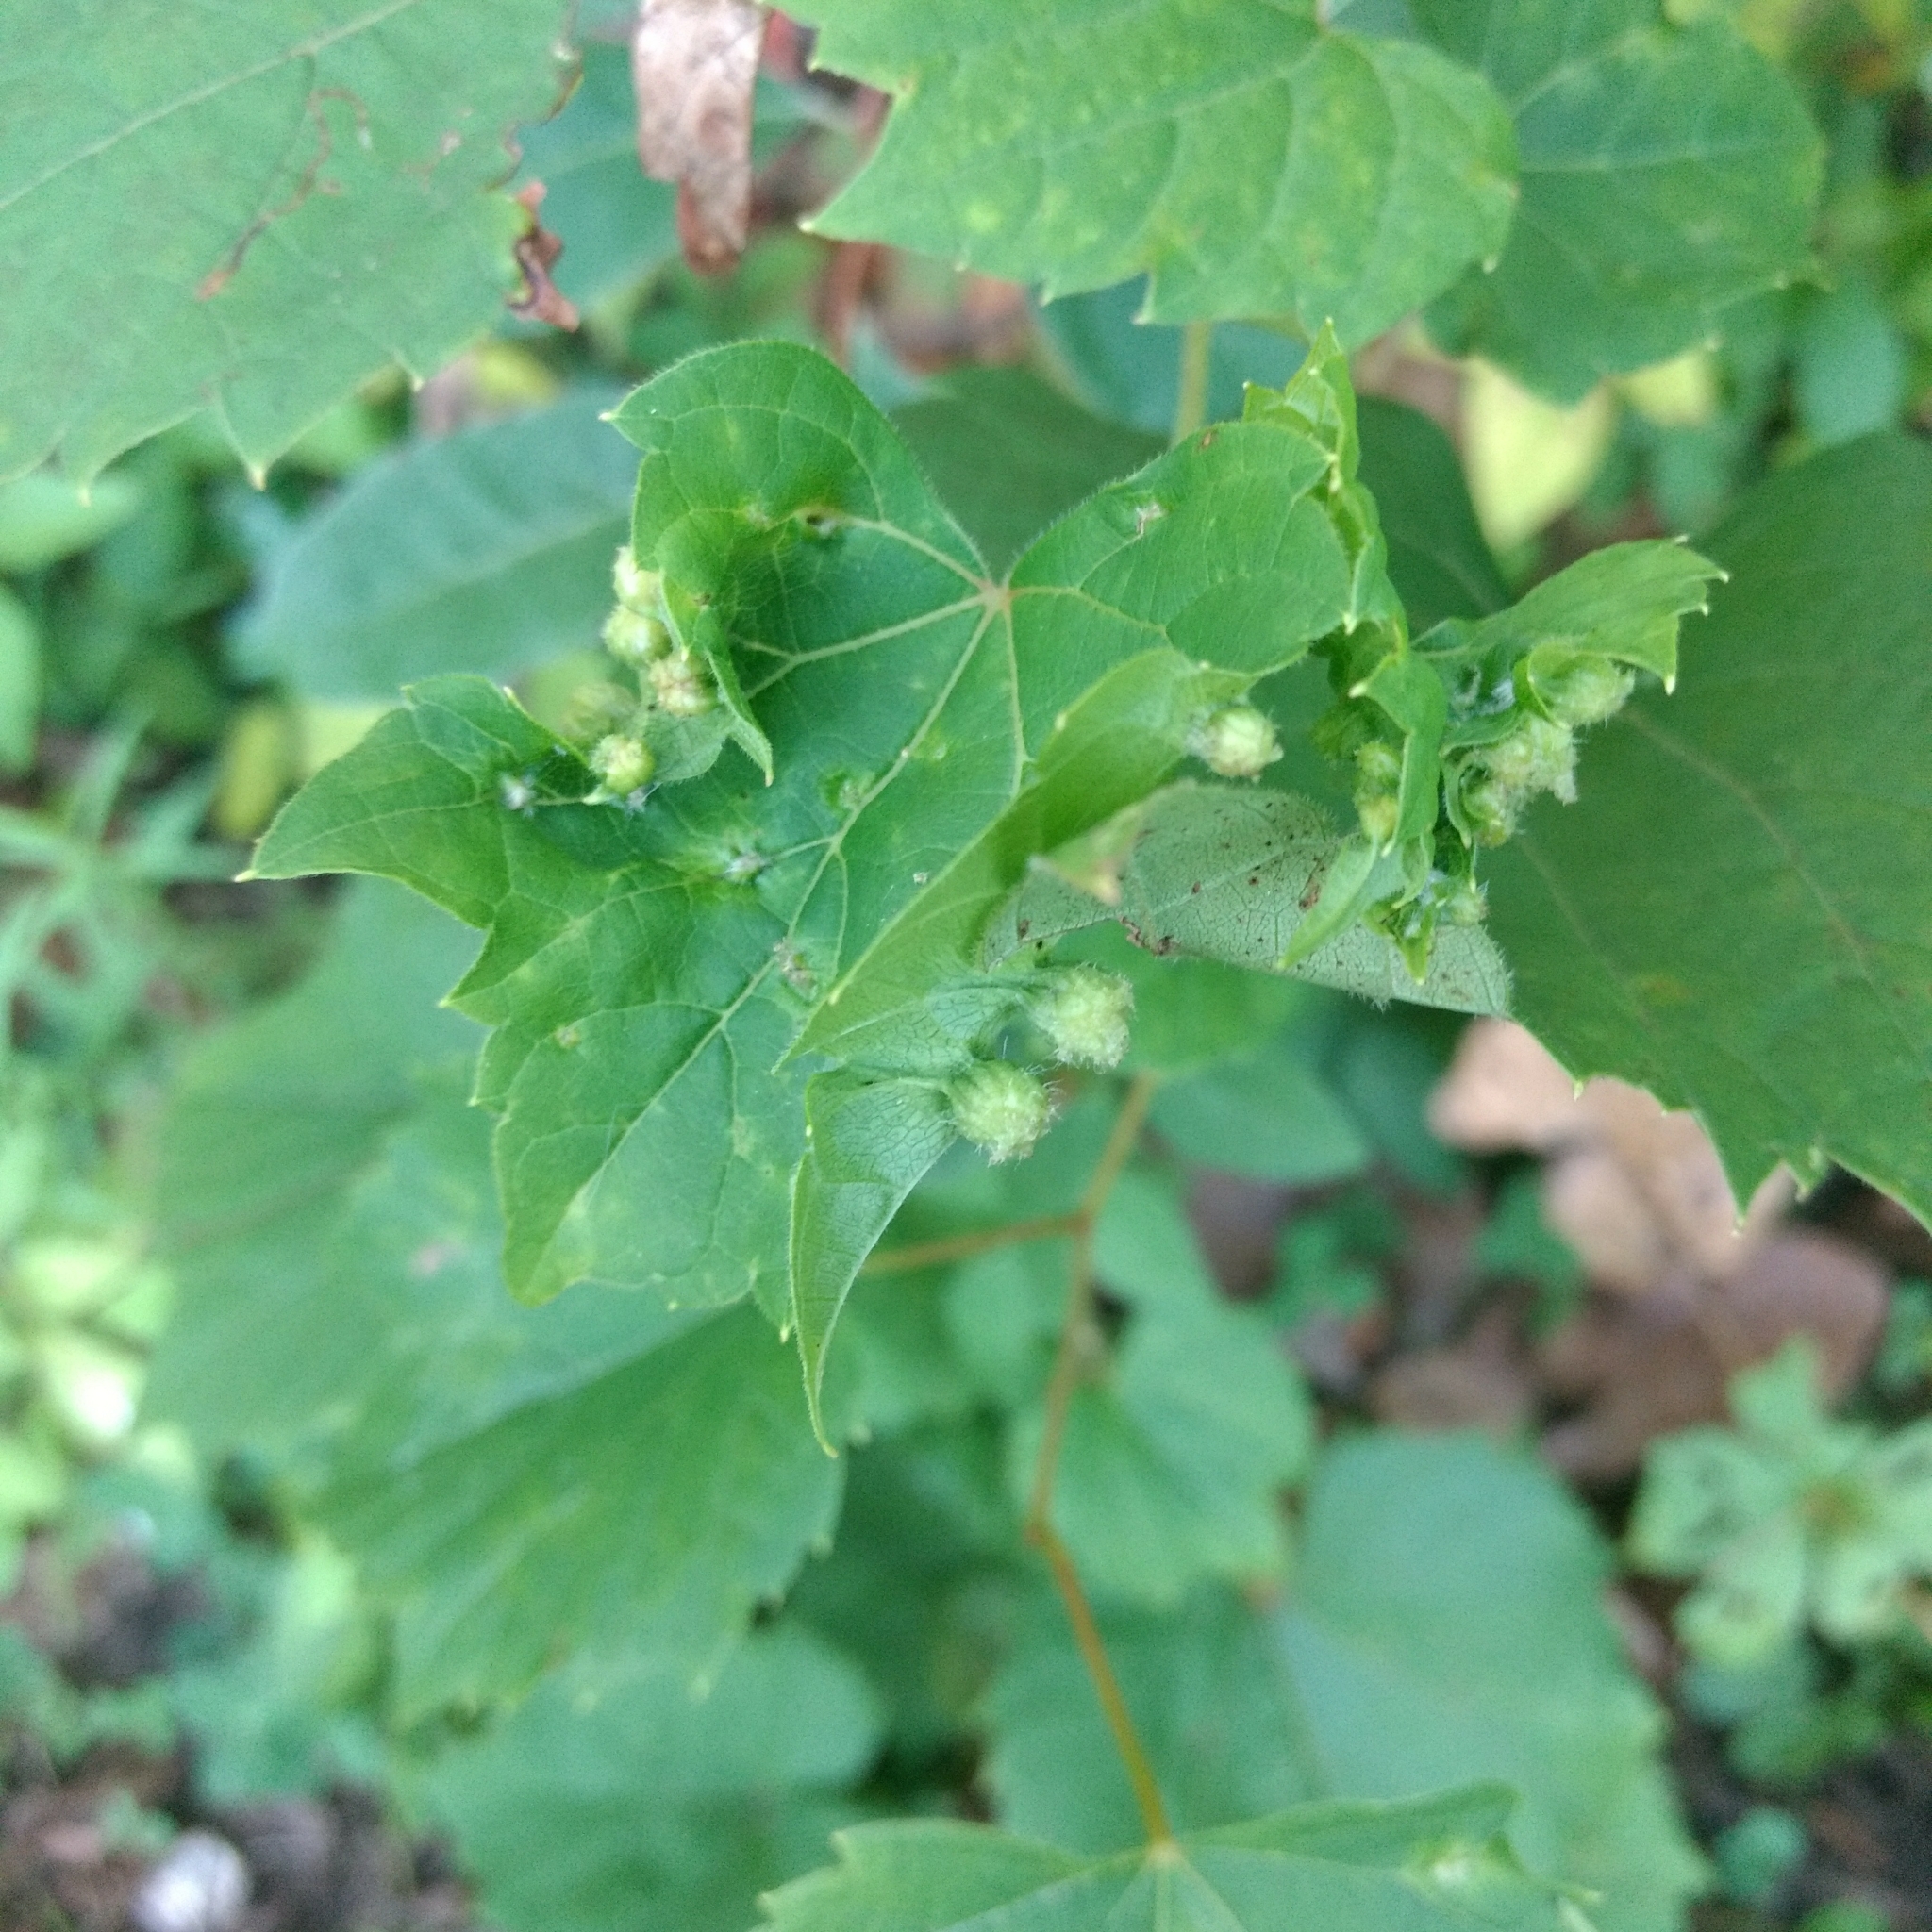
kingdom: Animalia
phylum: Arthropoda
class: Insecta
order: Hemiptera
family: Phylloxeridae
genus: Daktulosphaira
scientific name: Daktulosphaira vitifoliae
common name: Grape phylloxera
